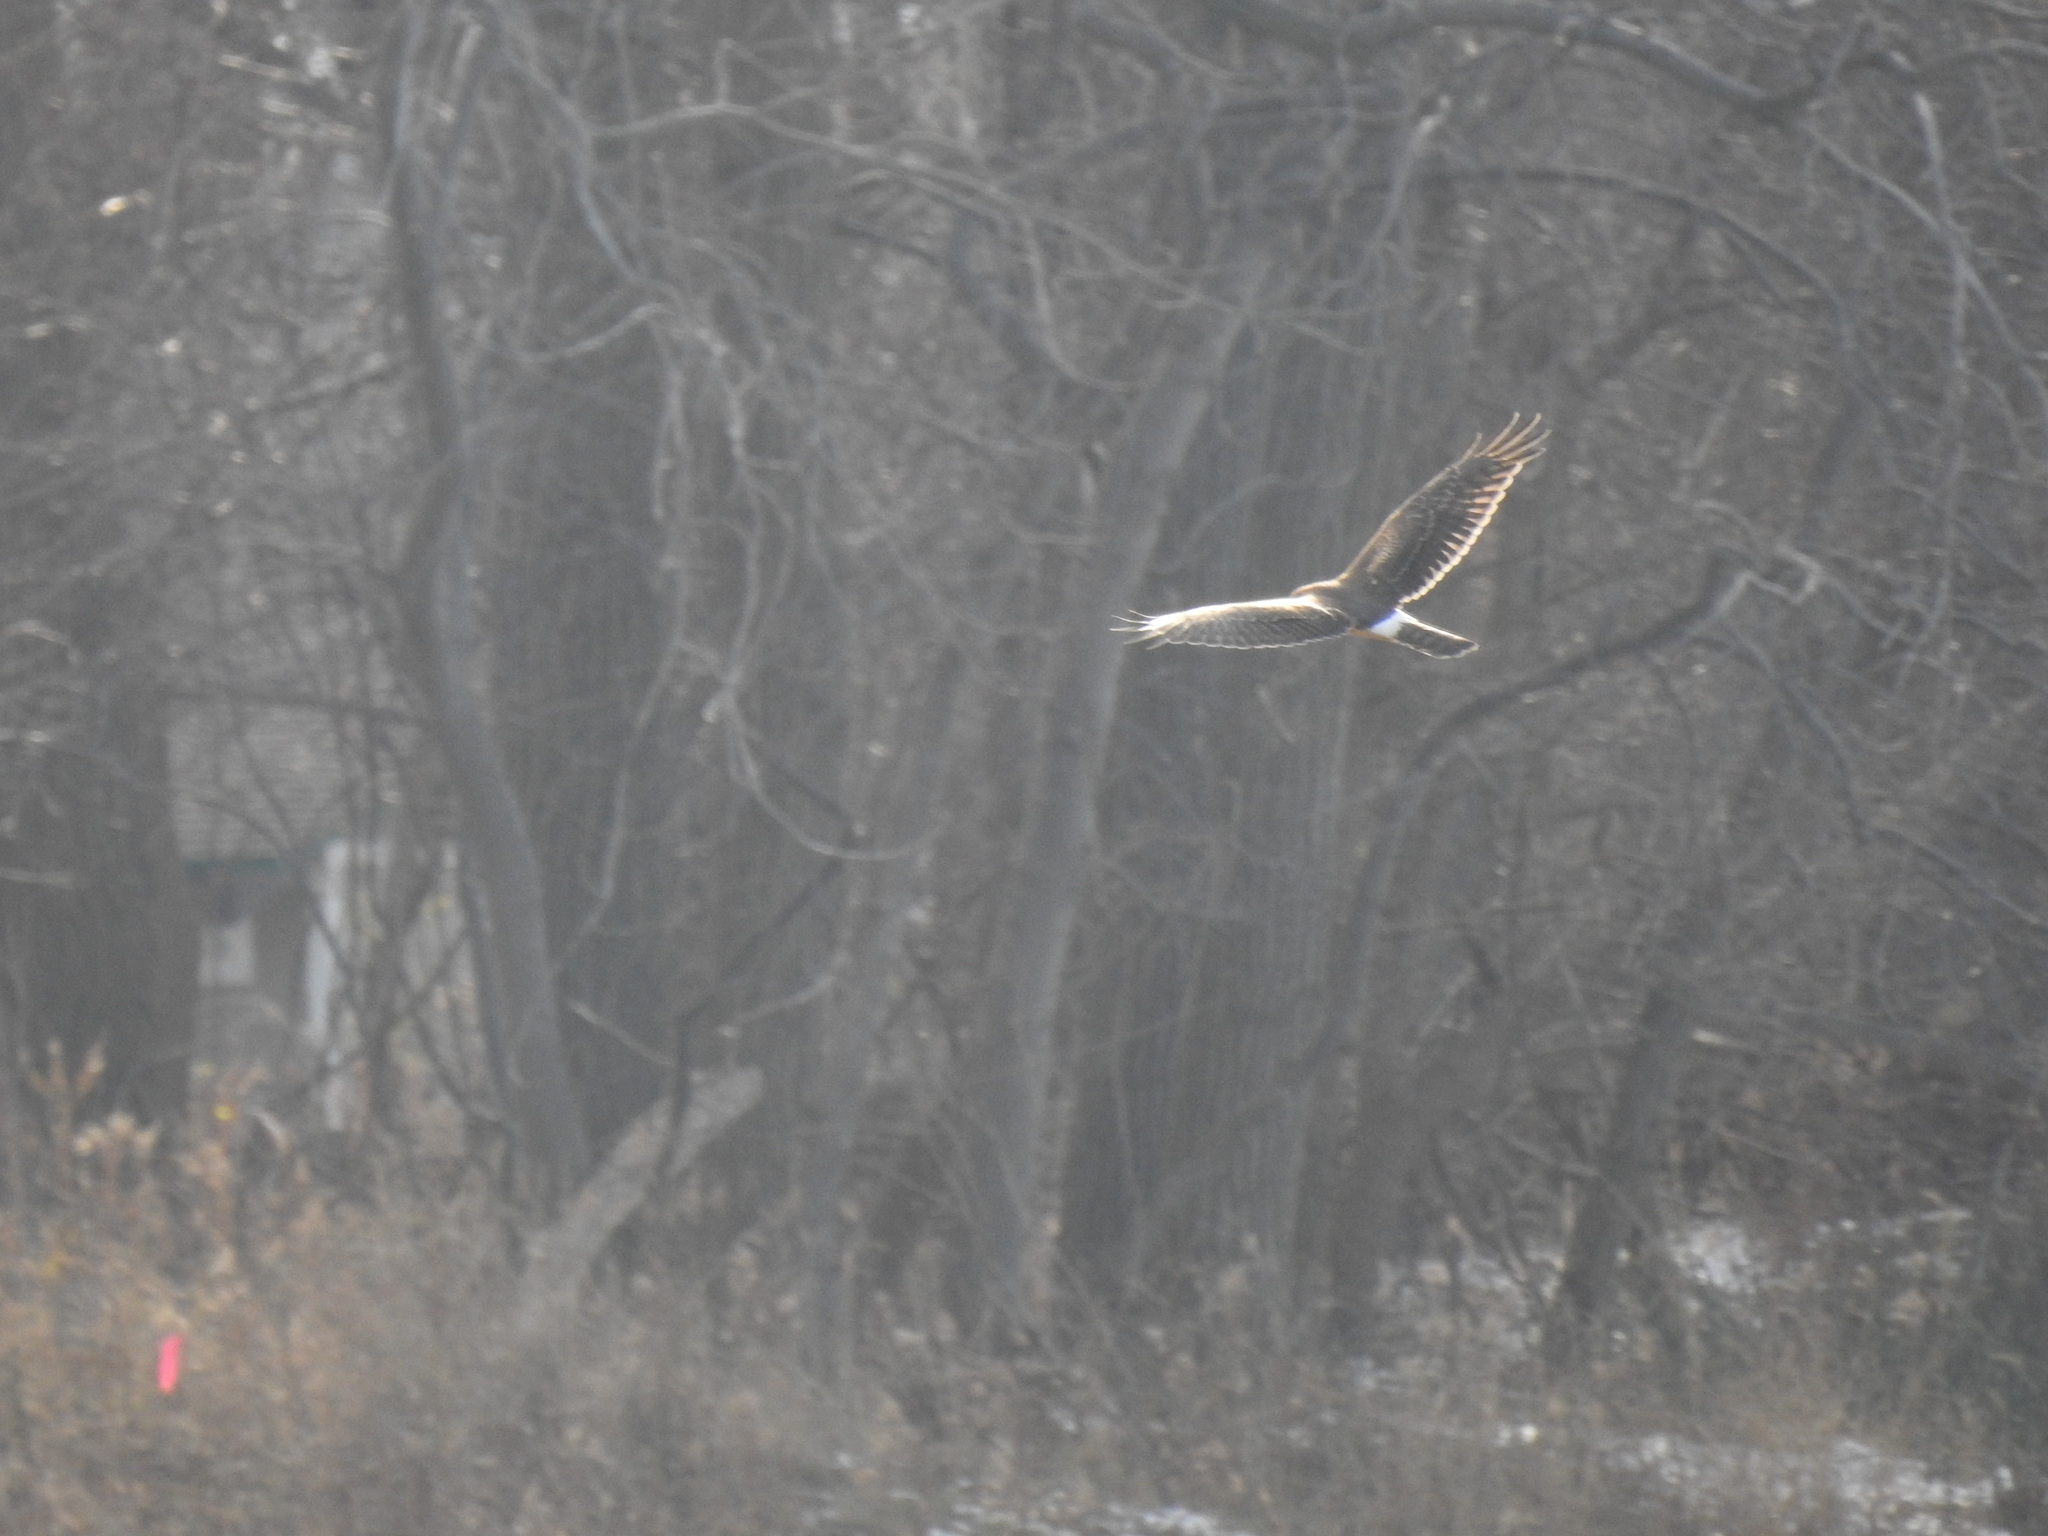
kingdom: Animalia
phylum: Chordata
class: Aves
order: Accipitriformes
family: Accipitridae
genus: Circus
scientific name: Circus cyaneus
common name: Hen harrier
